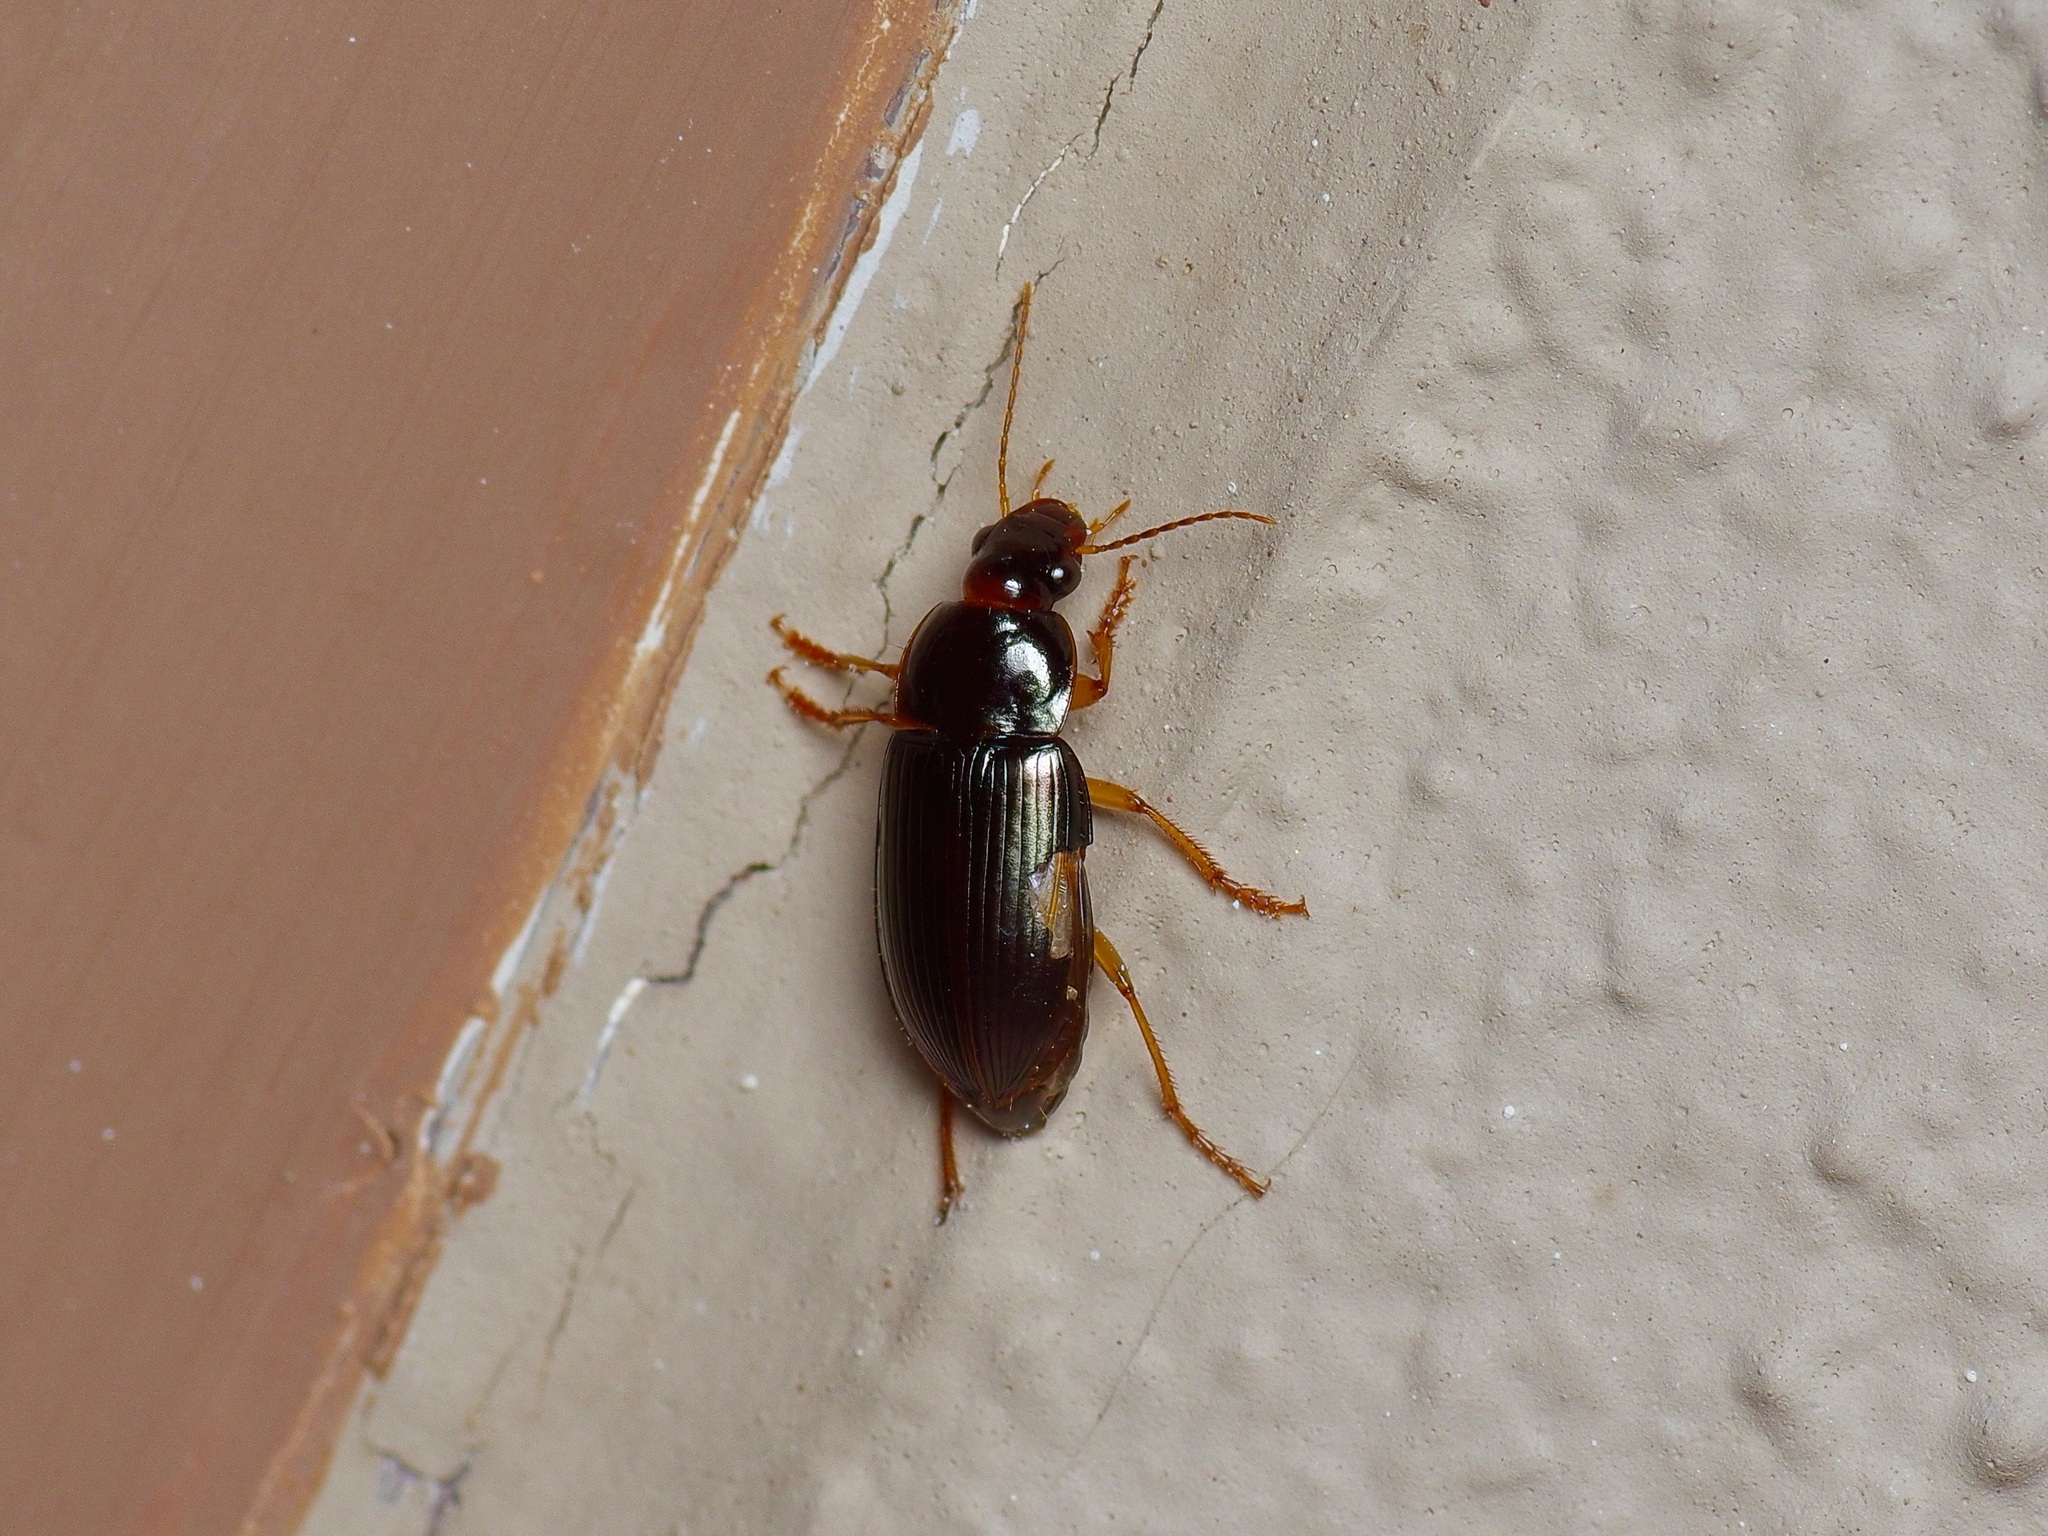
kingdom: Animalia
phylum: Arthropoda
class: Insecta
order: Coleoptera
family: Carabidae
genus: Notiobia
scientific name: Notiobia terminata
